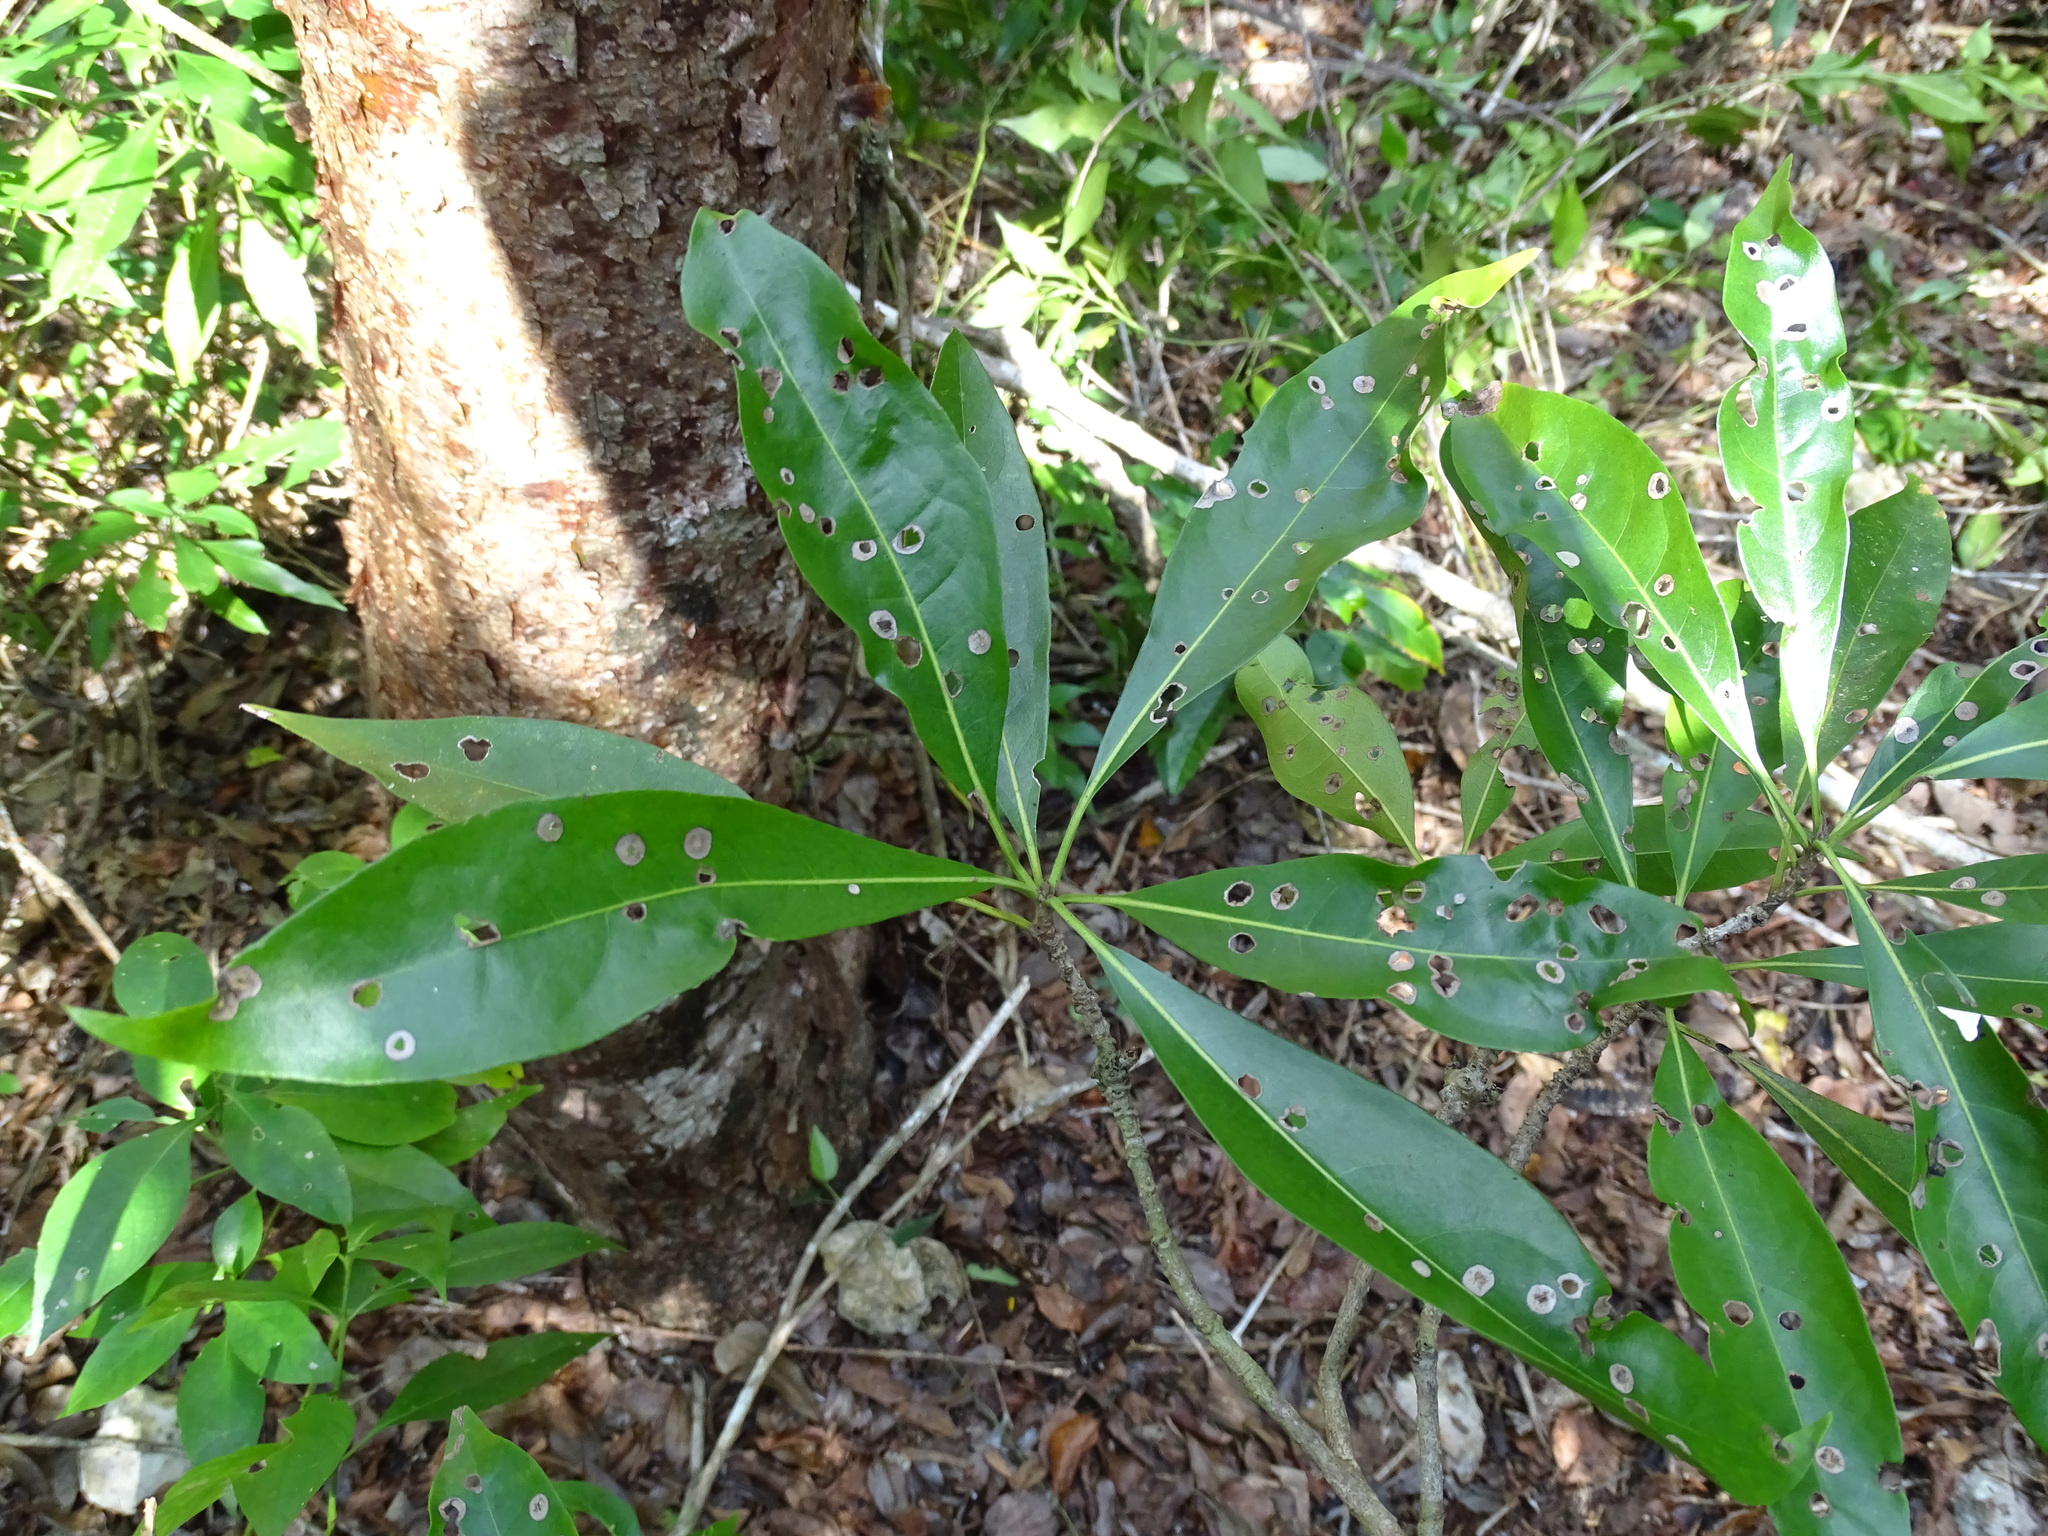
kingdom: Plantae
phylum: Tracheophyta
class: Magnoliopsida
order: Boraginales
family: Cordiaceae
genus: Cordia
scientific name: Cordia gerascanthus
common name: Baria
